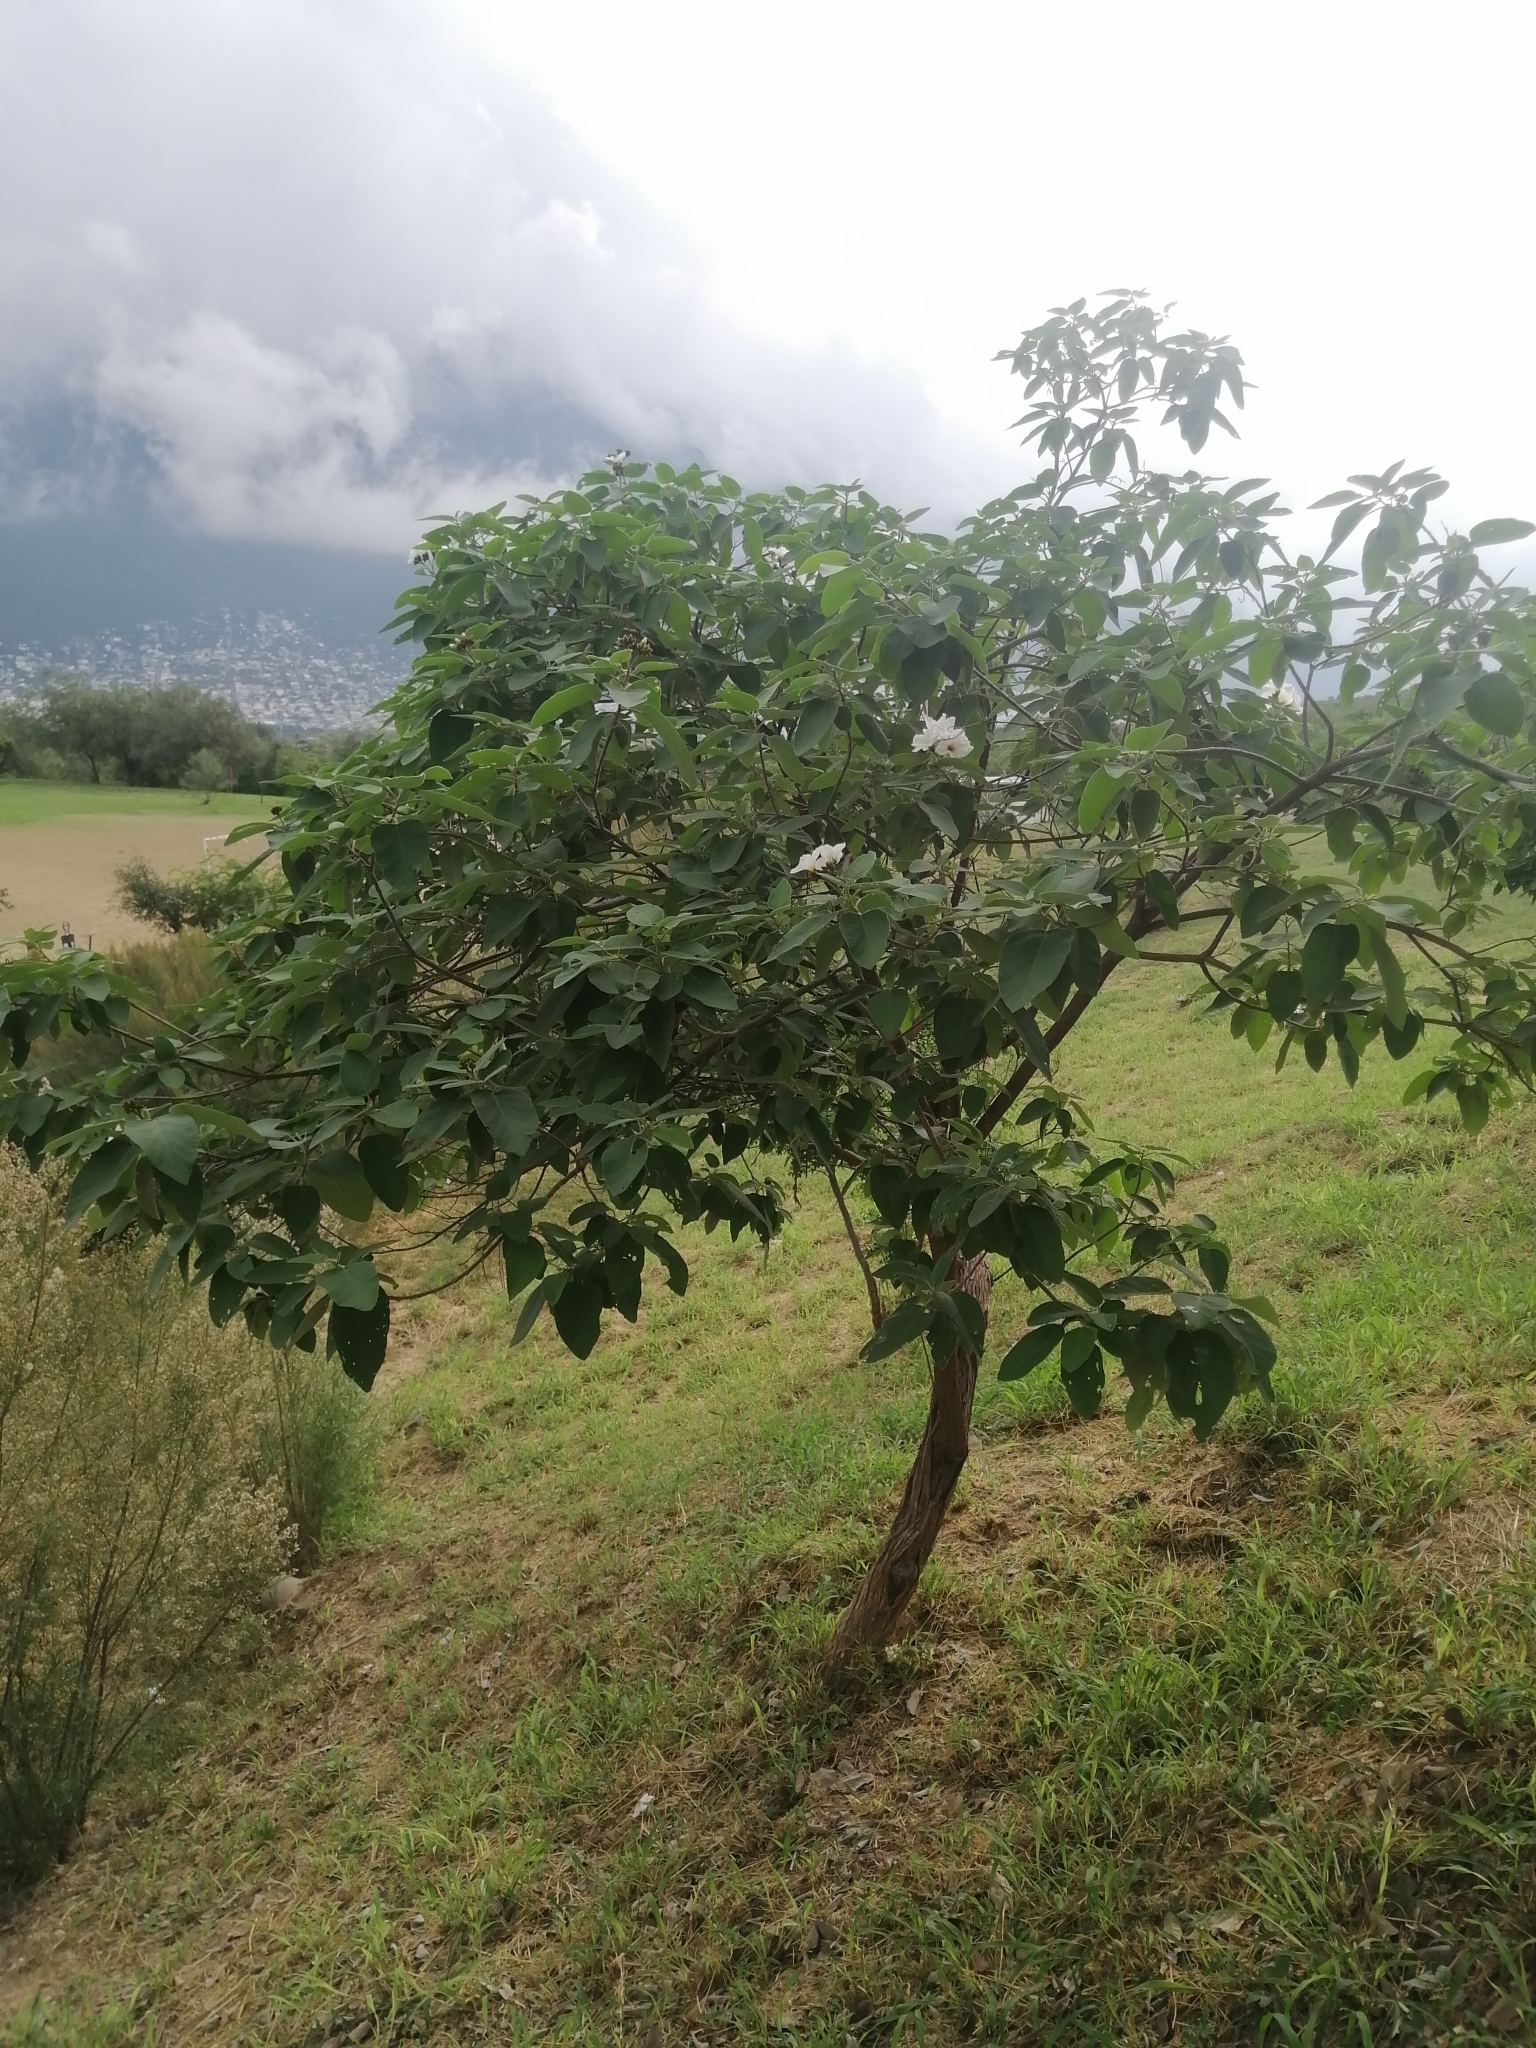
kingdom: Plantae
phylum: Tracheophyta
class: Magnoliopsida
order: Boraginales
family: Cordiaceae
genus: Cordia
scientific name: Cordia boissieri
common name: Mexican-olive
